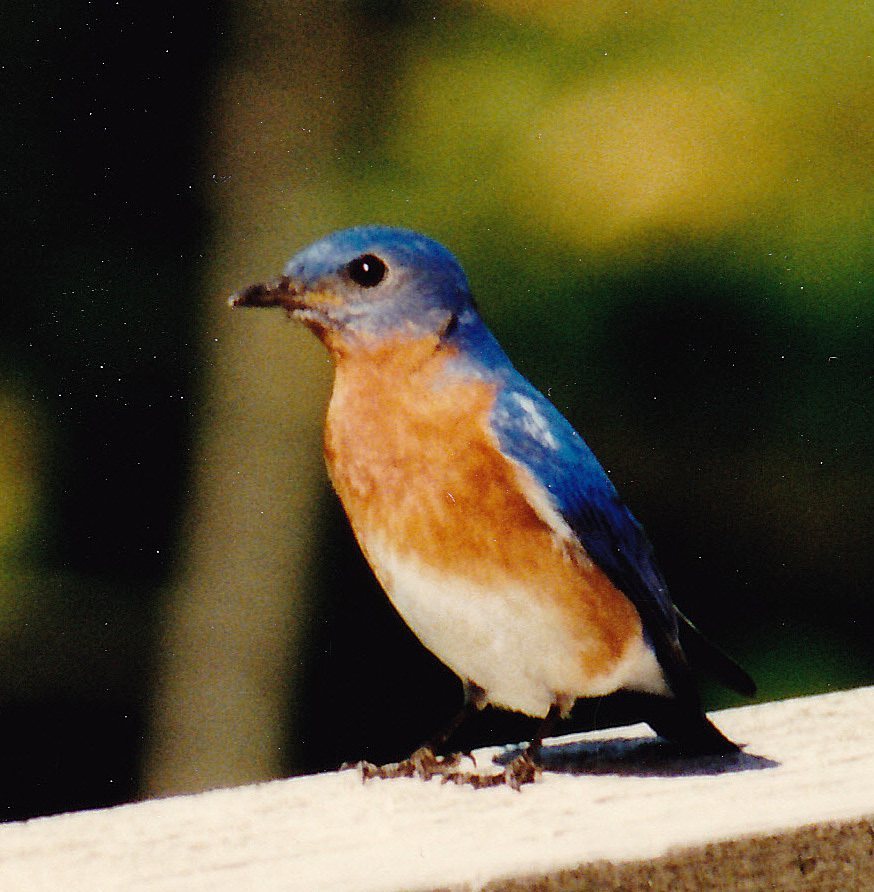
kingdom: Animalia
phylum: Chordata
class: Aves
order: Passeriformes
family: Turdidae
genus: Sialia
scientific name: Sialia sialis
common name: Eastern bluebird
